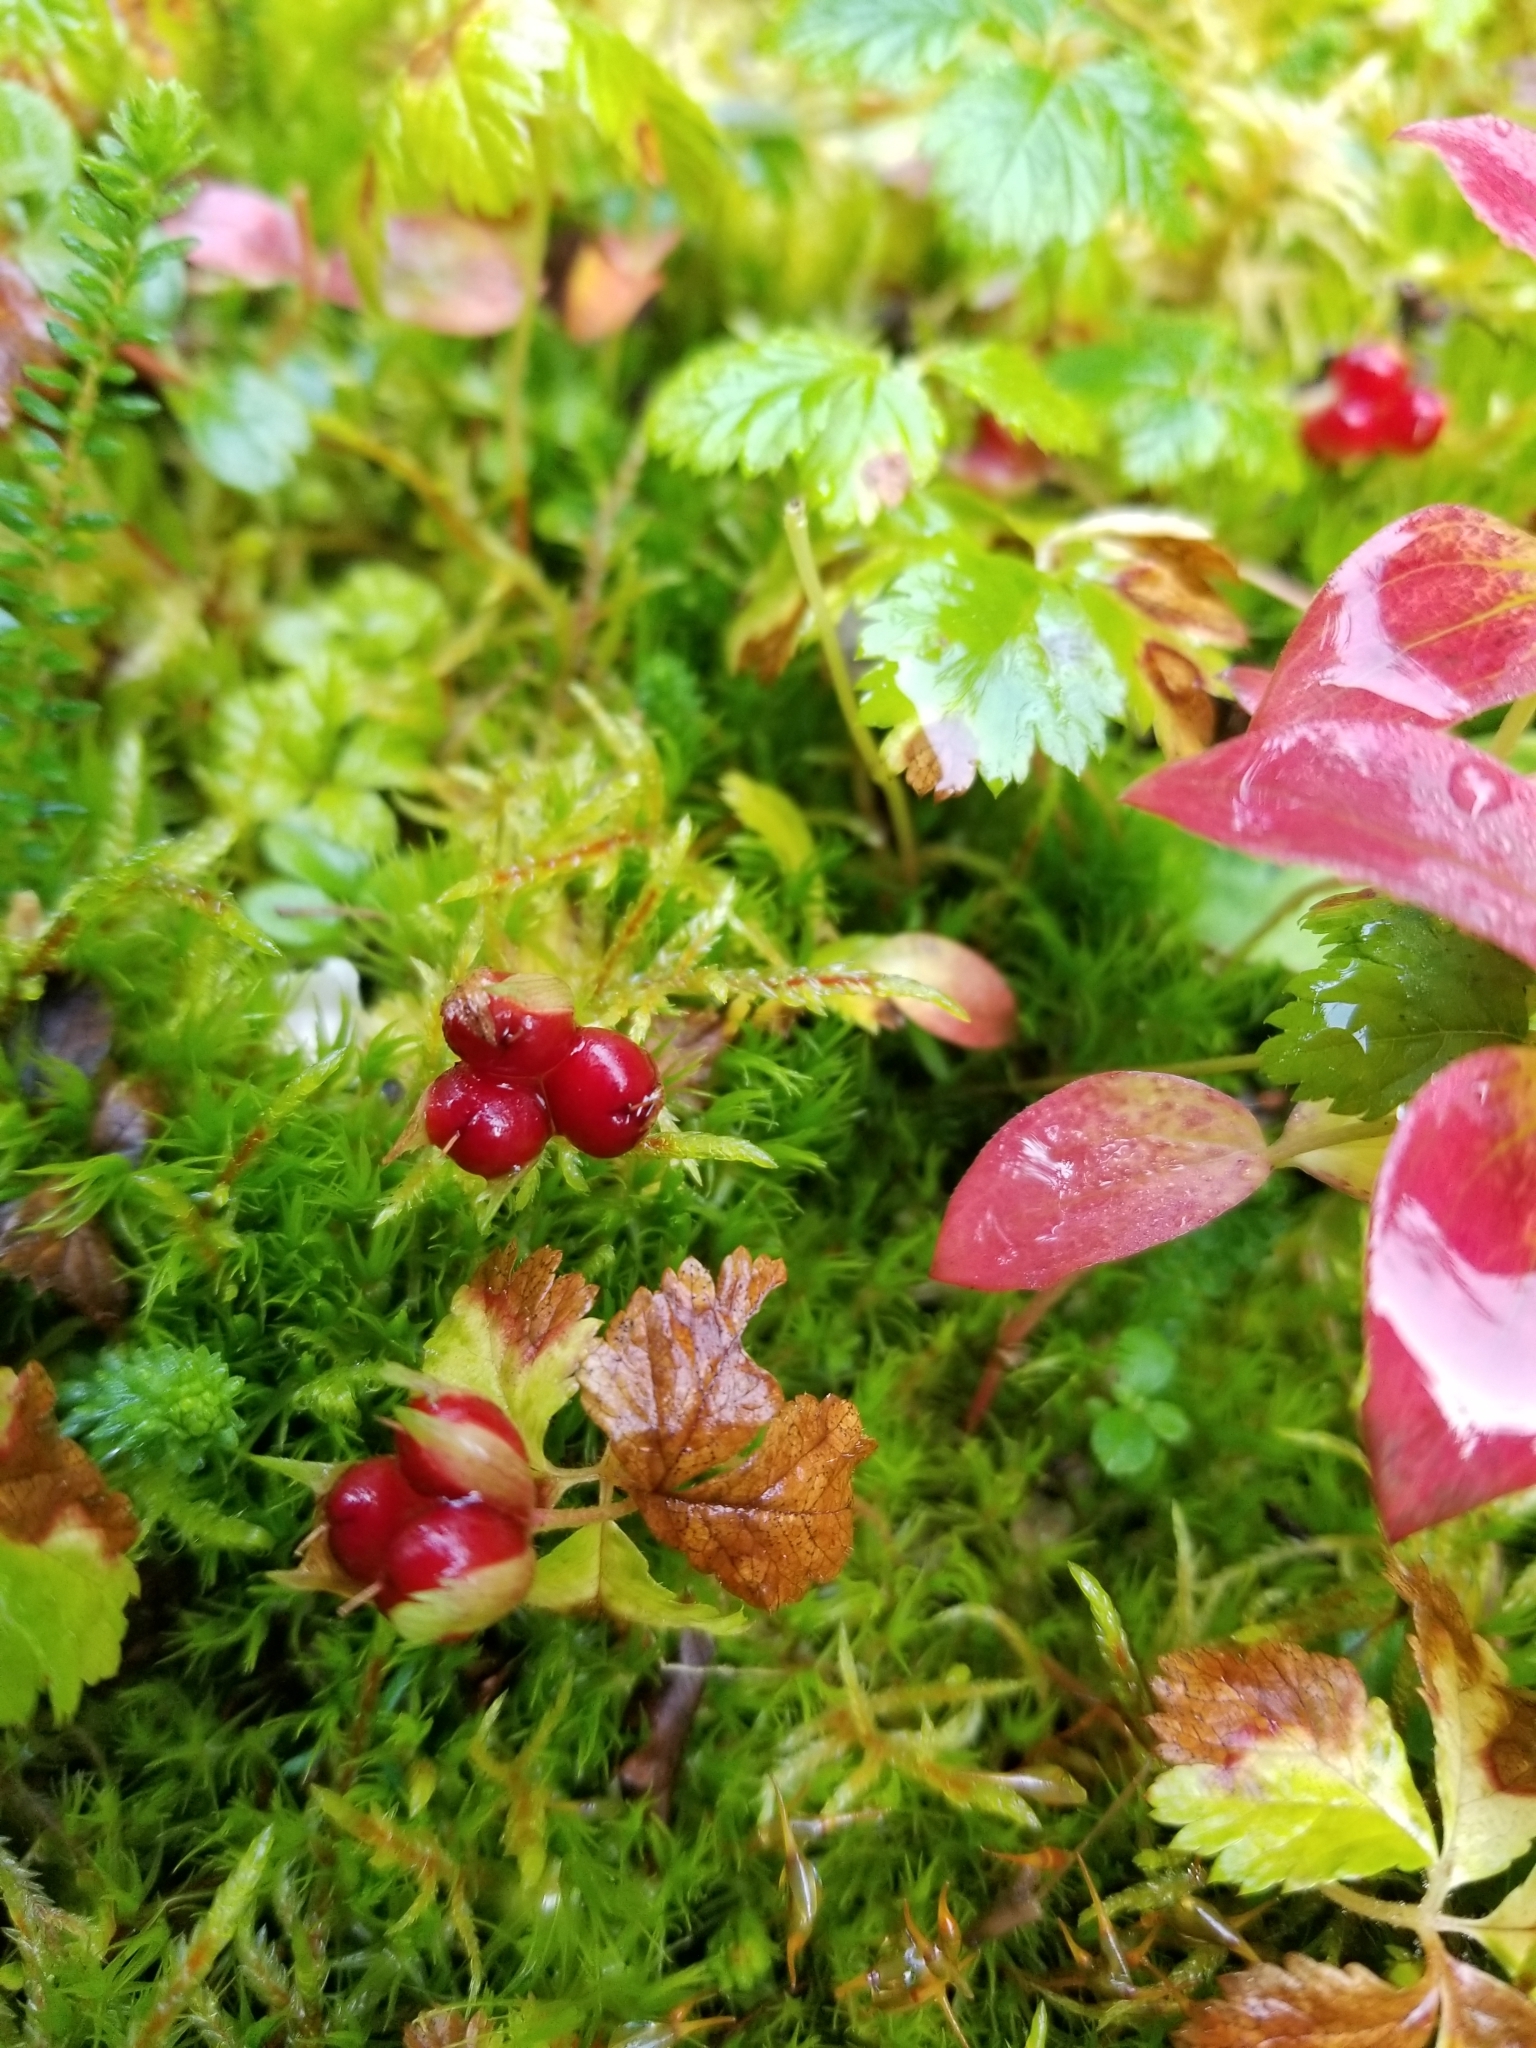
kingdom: Plantae
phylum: Tracheophyta
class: Magnoliopsida
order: Rosales
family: Rosaceae
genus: Rubus
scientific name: Rubus pedatus
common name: Creeping raspberry
